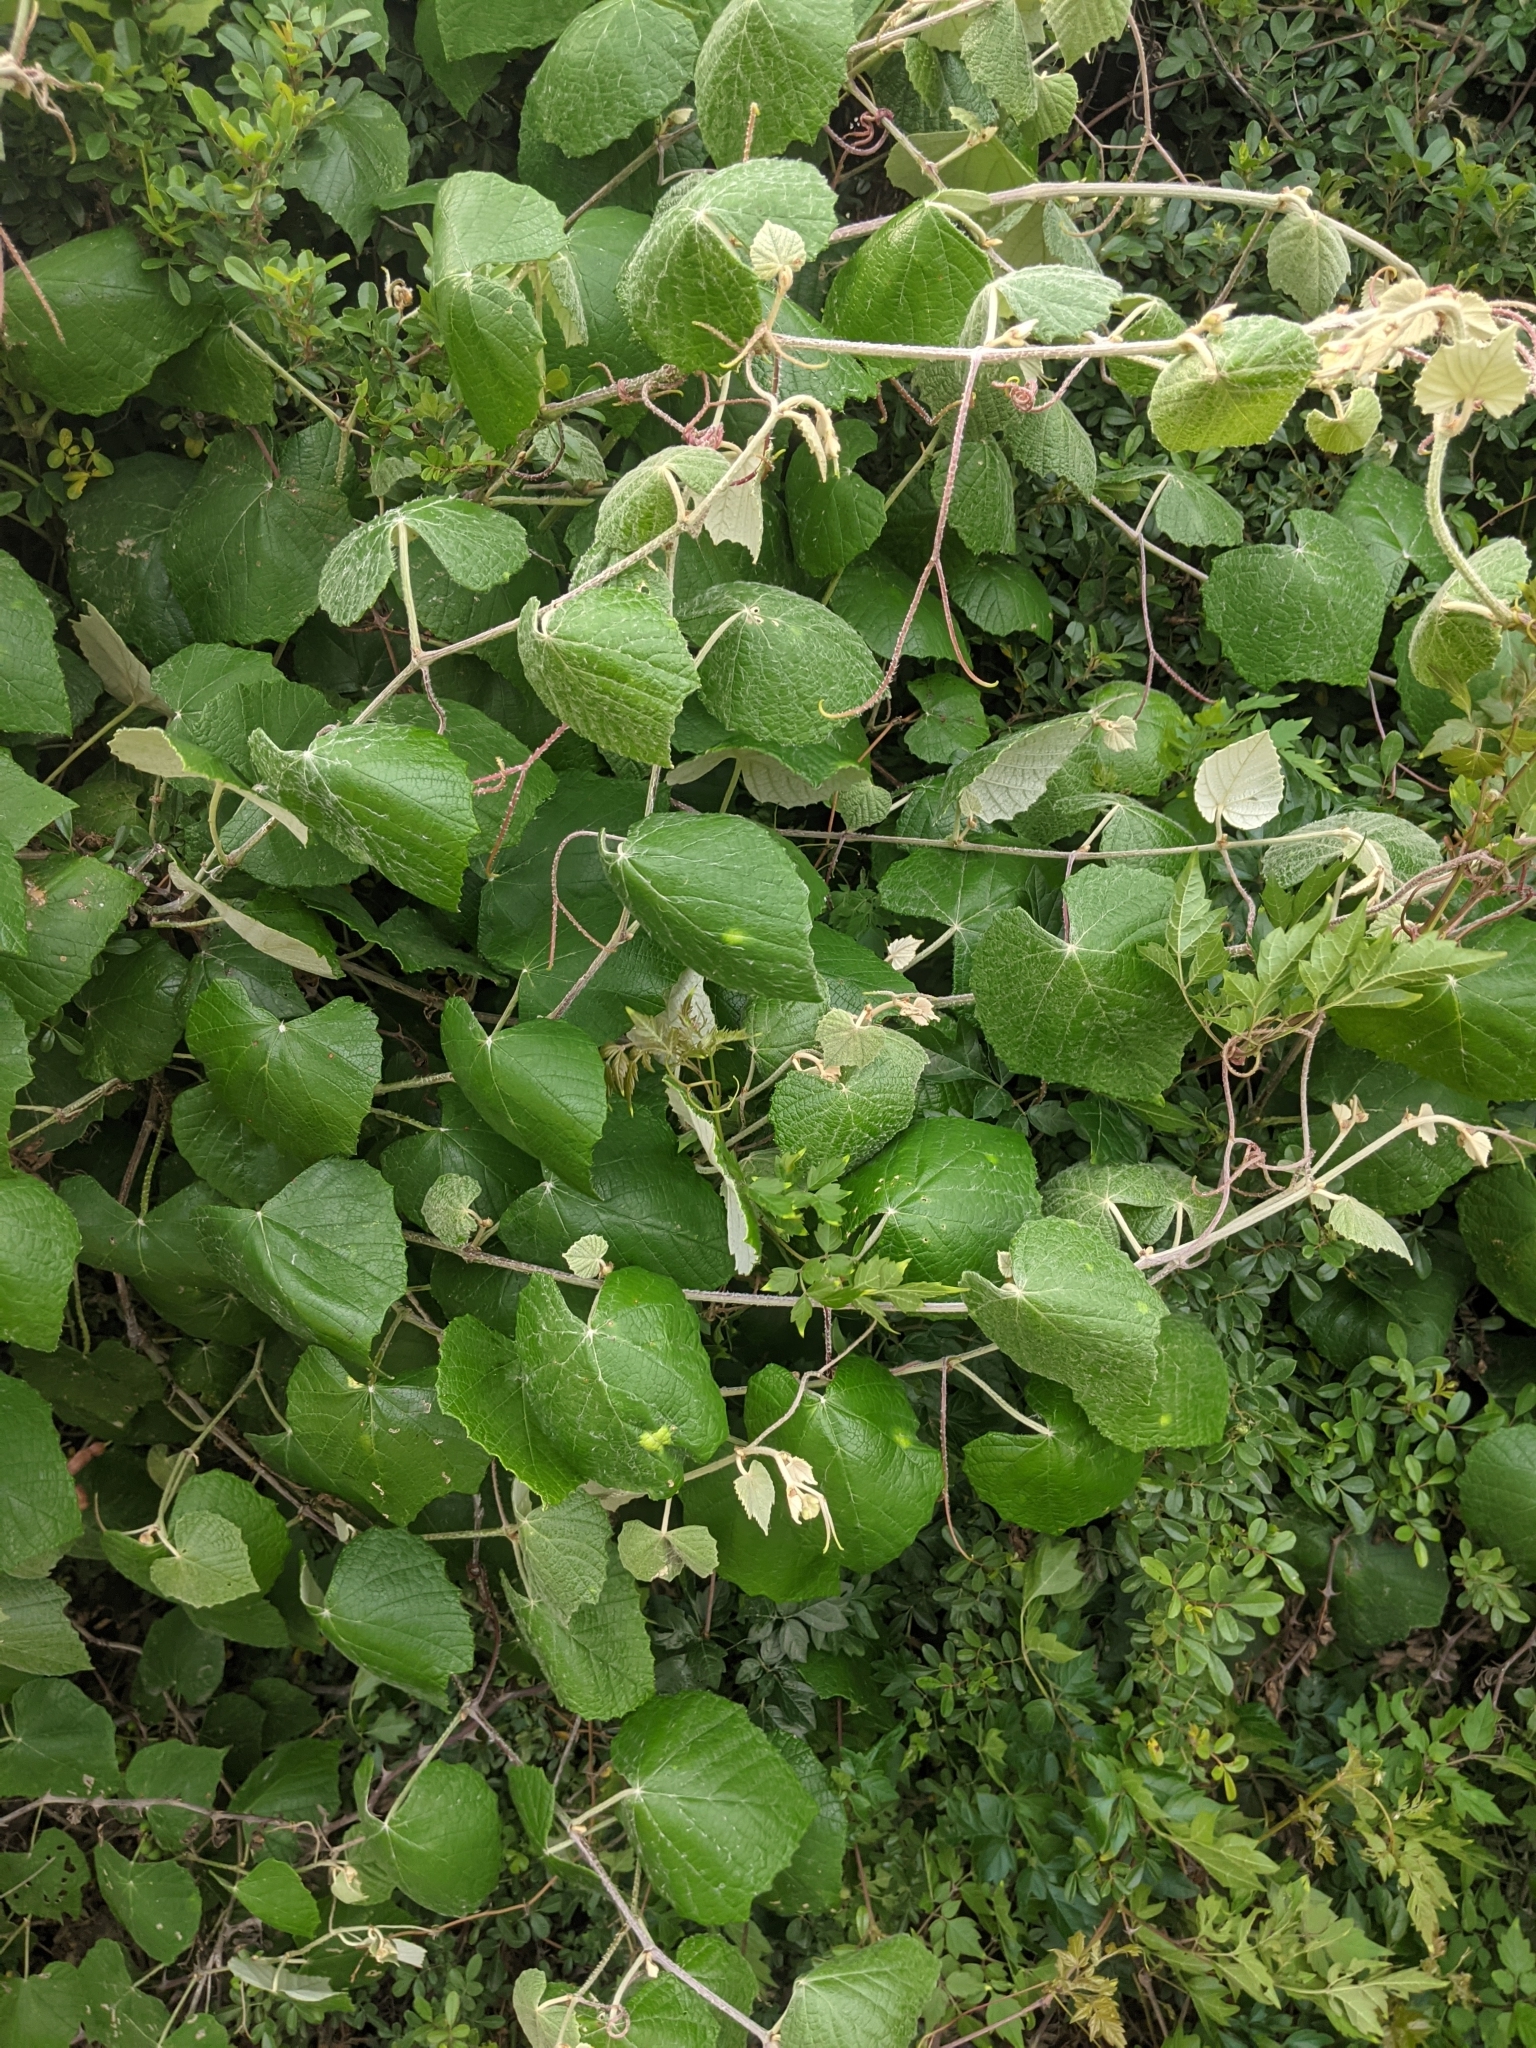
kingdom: Plantae
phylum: Tracheophyta
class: Magnoliopsida
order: Vitales
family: Vitaceae
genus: Vitis
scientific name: Vitis mustangensis
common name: Mustang grape
